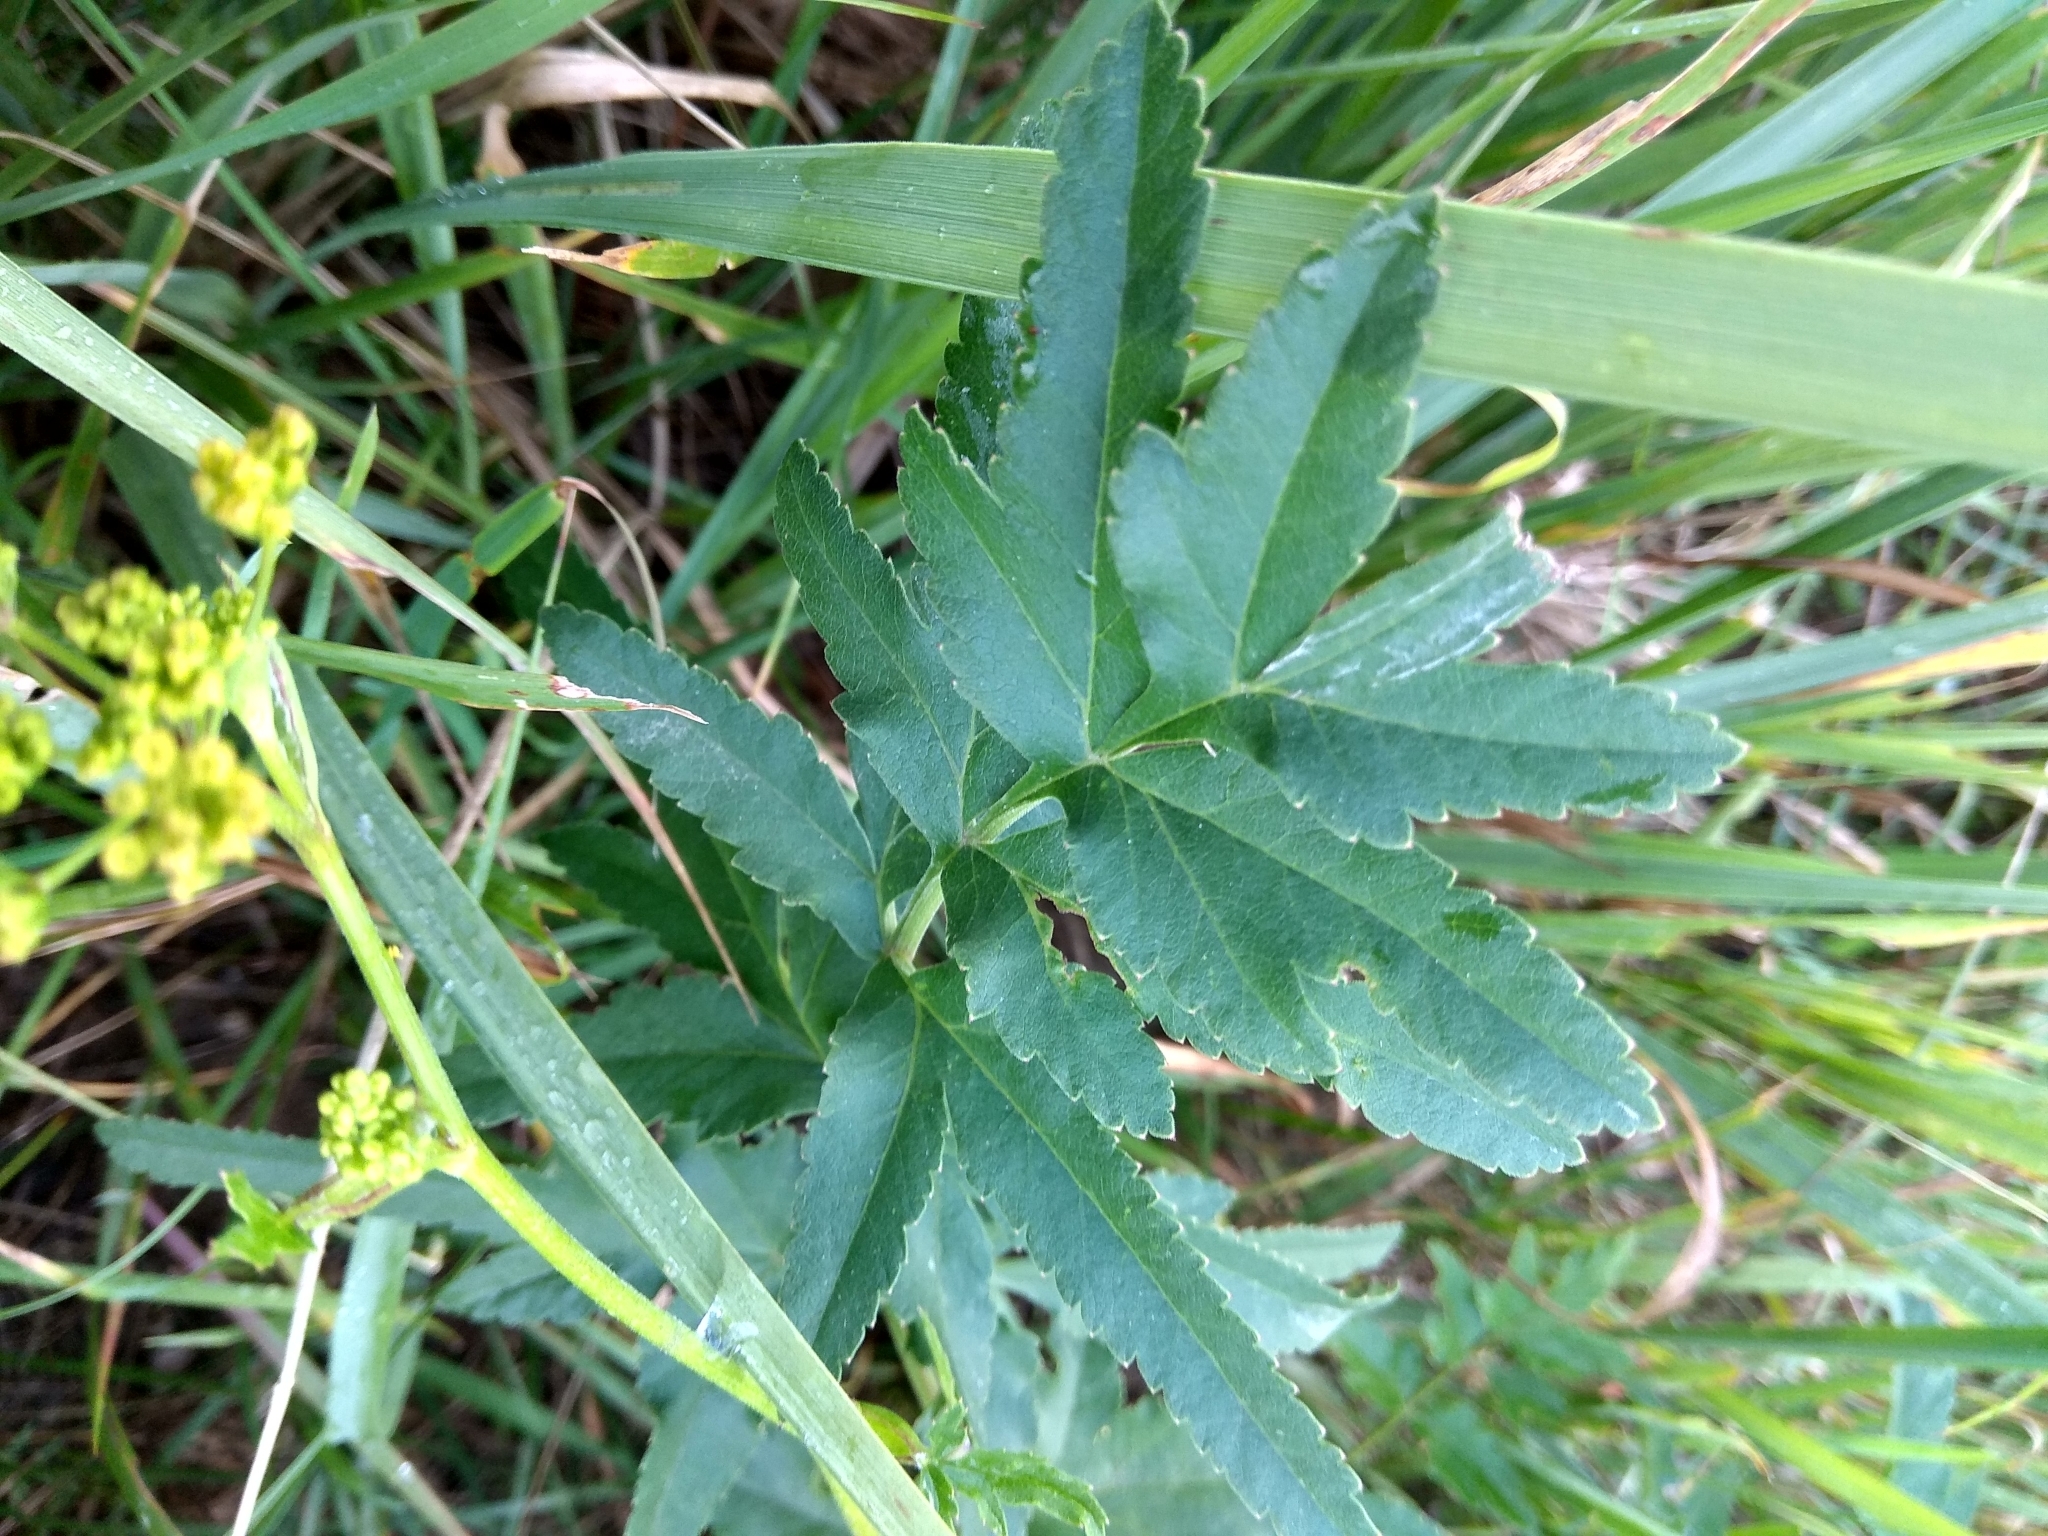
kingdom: Plantae
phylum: Tracheophyta
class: Magnoliopsida
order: Apiales
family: Apiaceae
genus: Pastinaca
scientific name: Pastinaca sativa
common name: Wild parsnip
